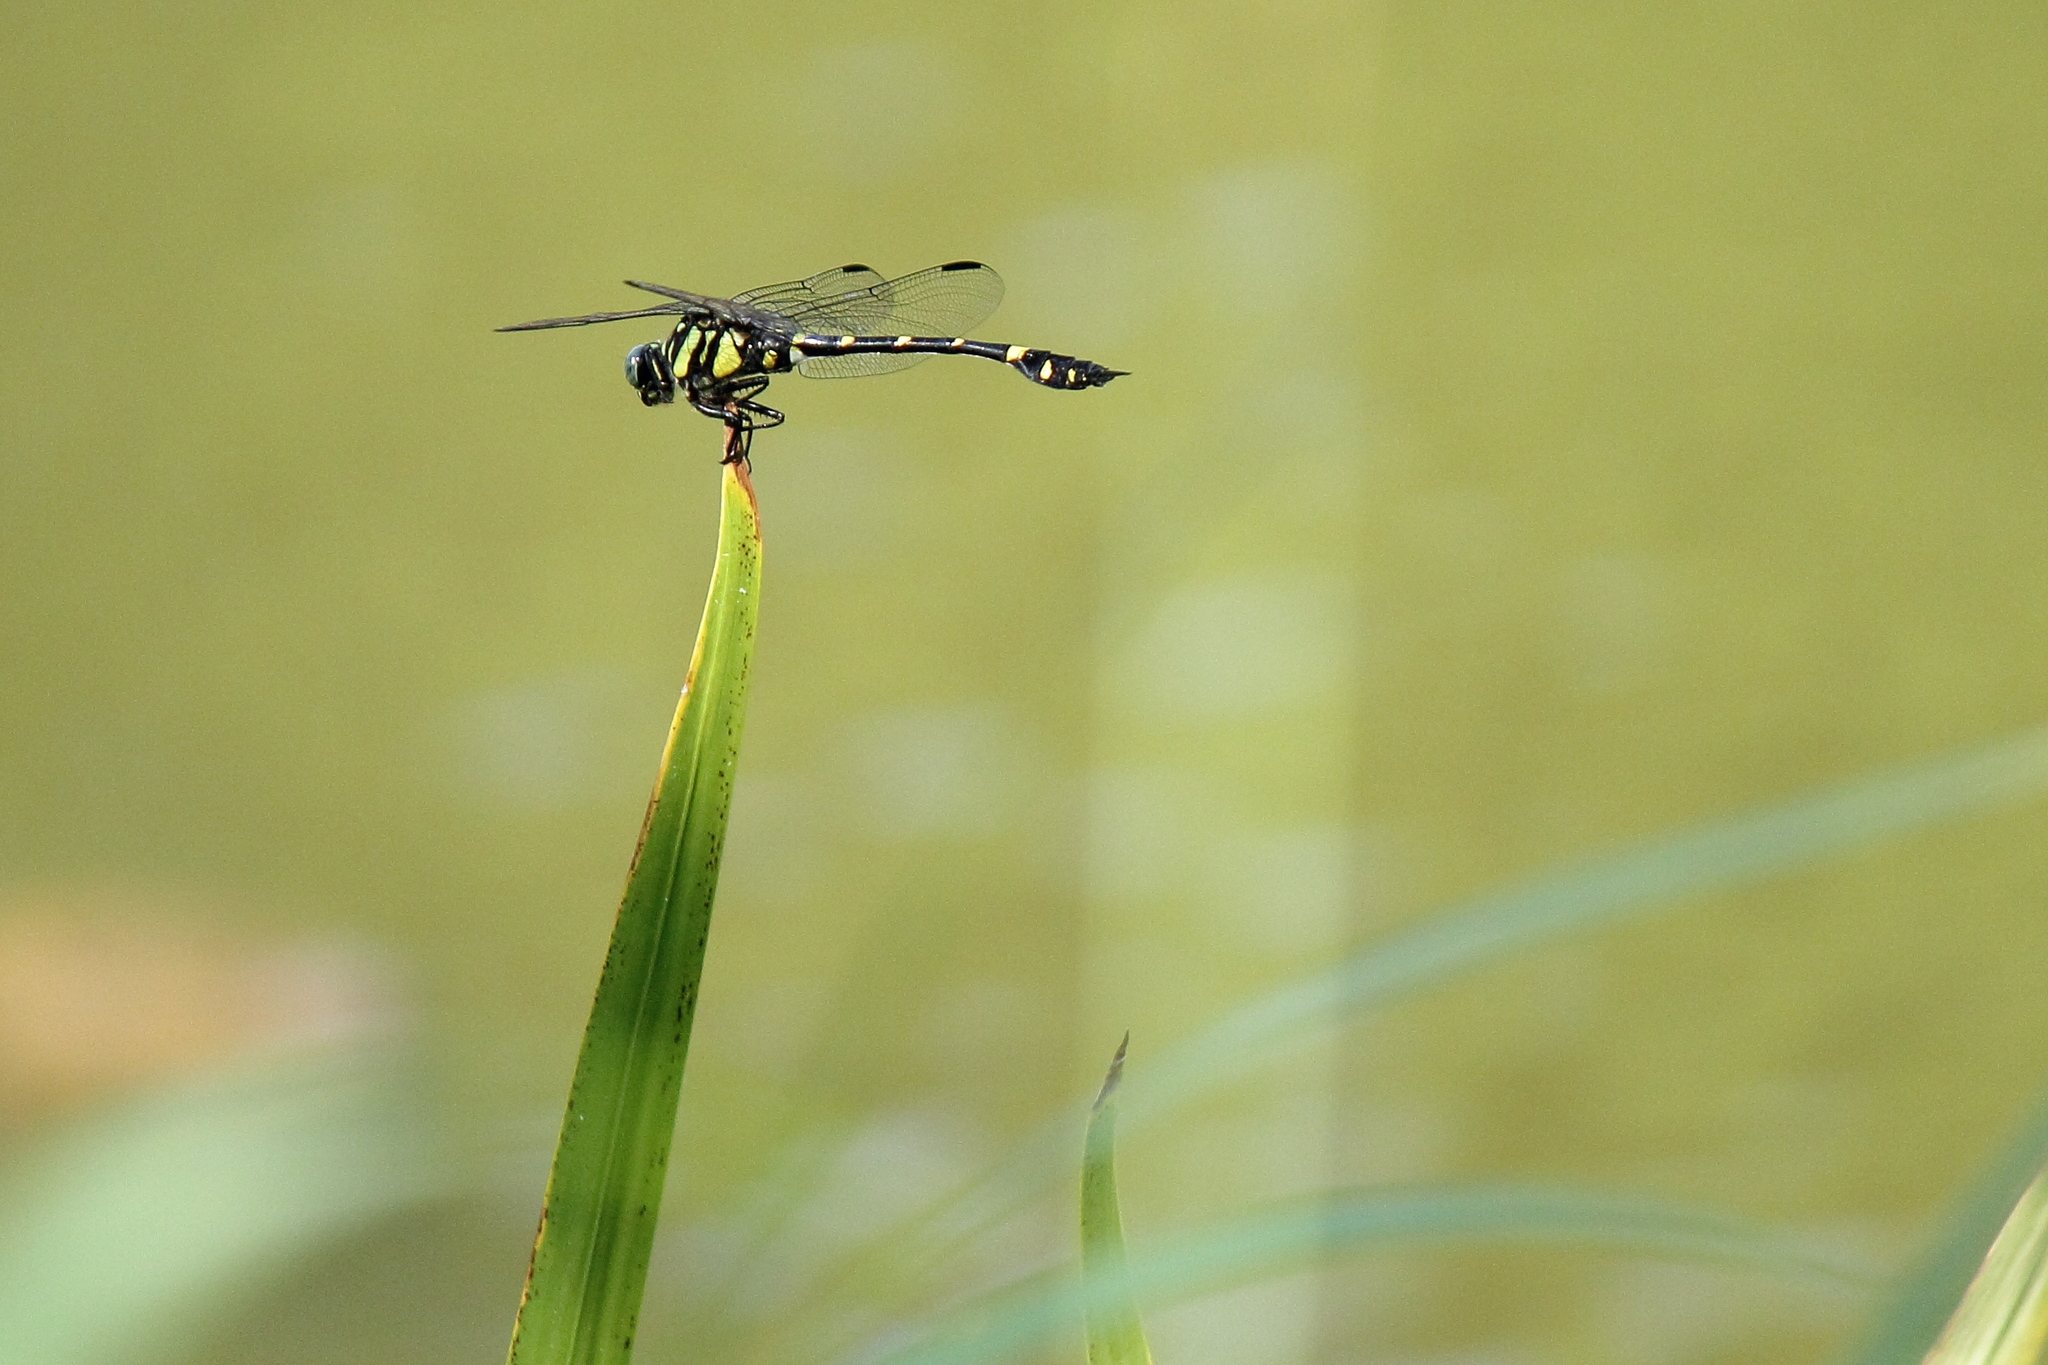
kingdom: Animalia
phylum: Arthropoda
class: Insecta
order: Odonata
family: Gomphidae
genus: Ictinogomphus
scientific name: Ictinogomphus pertinax
